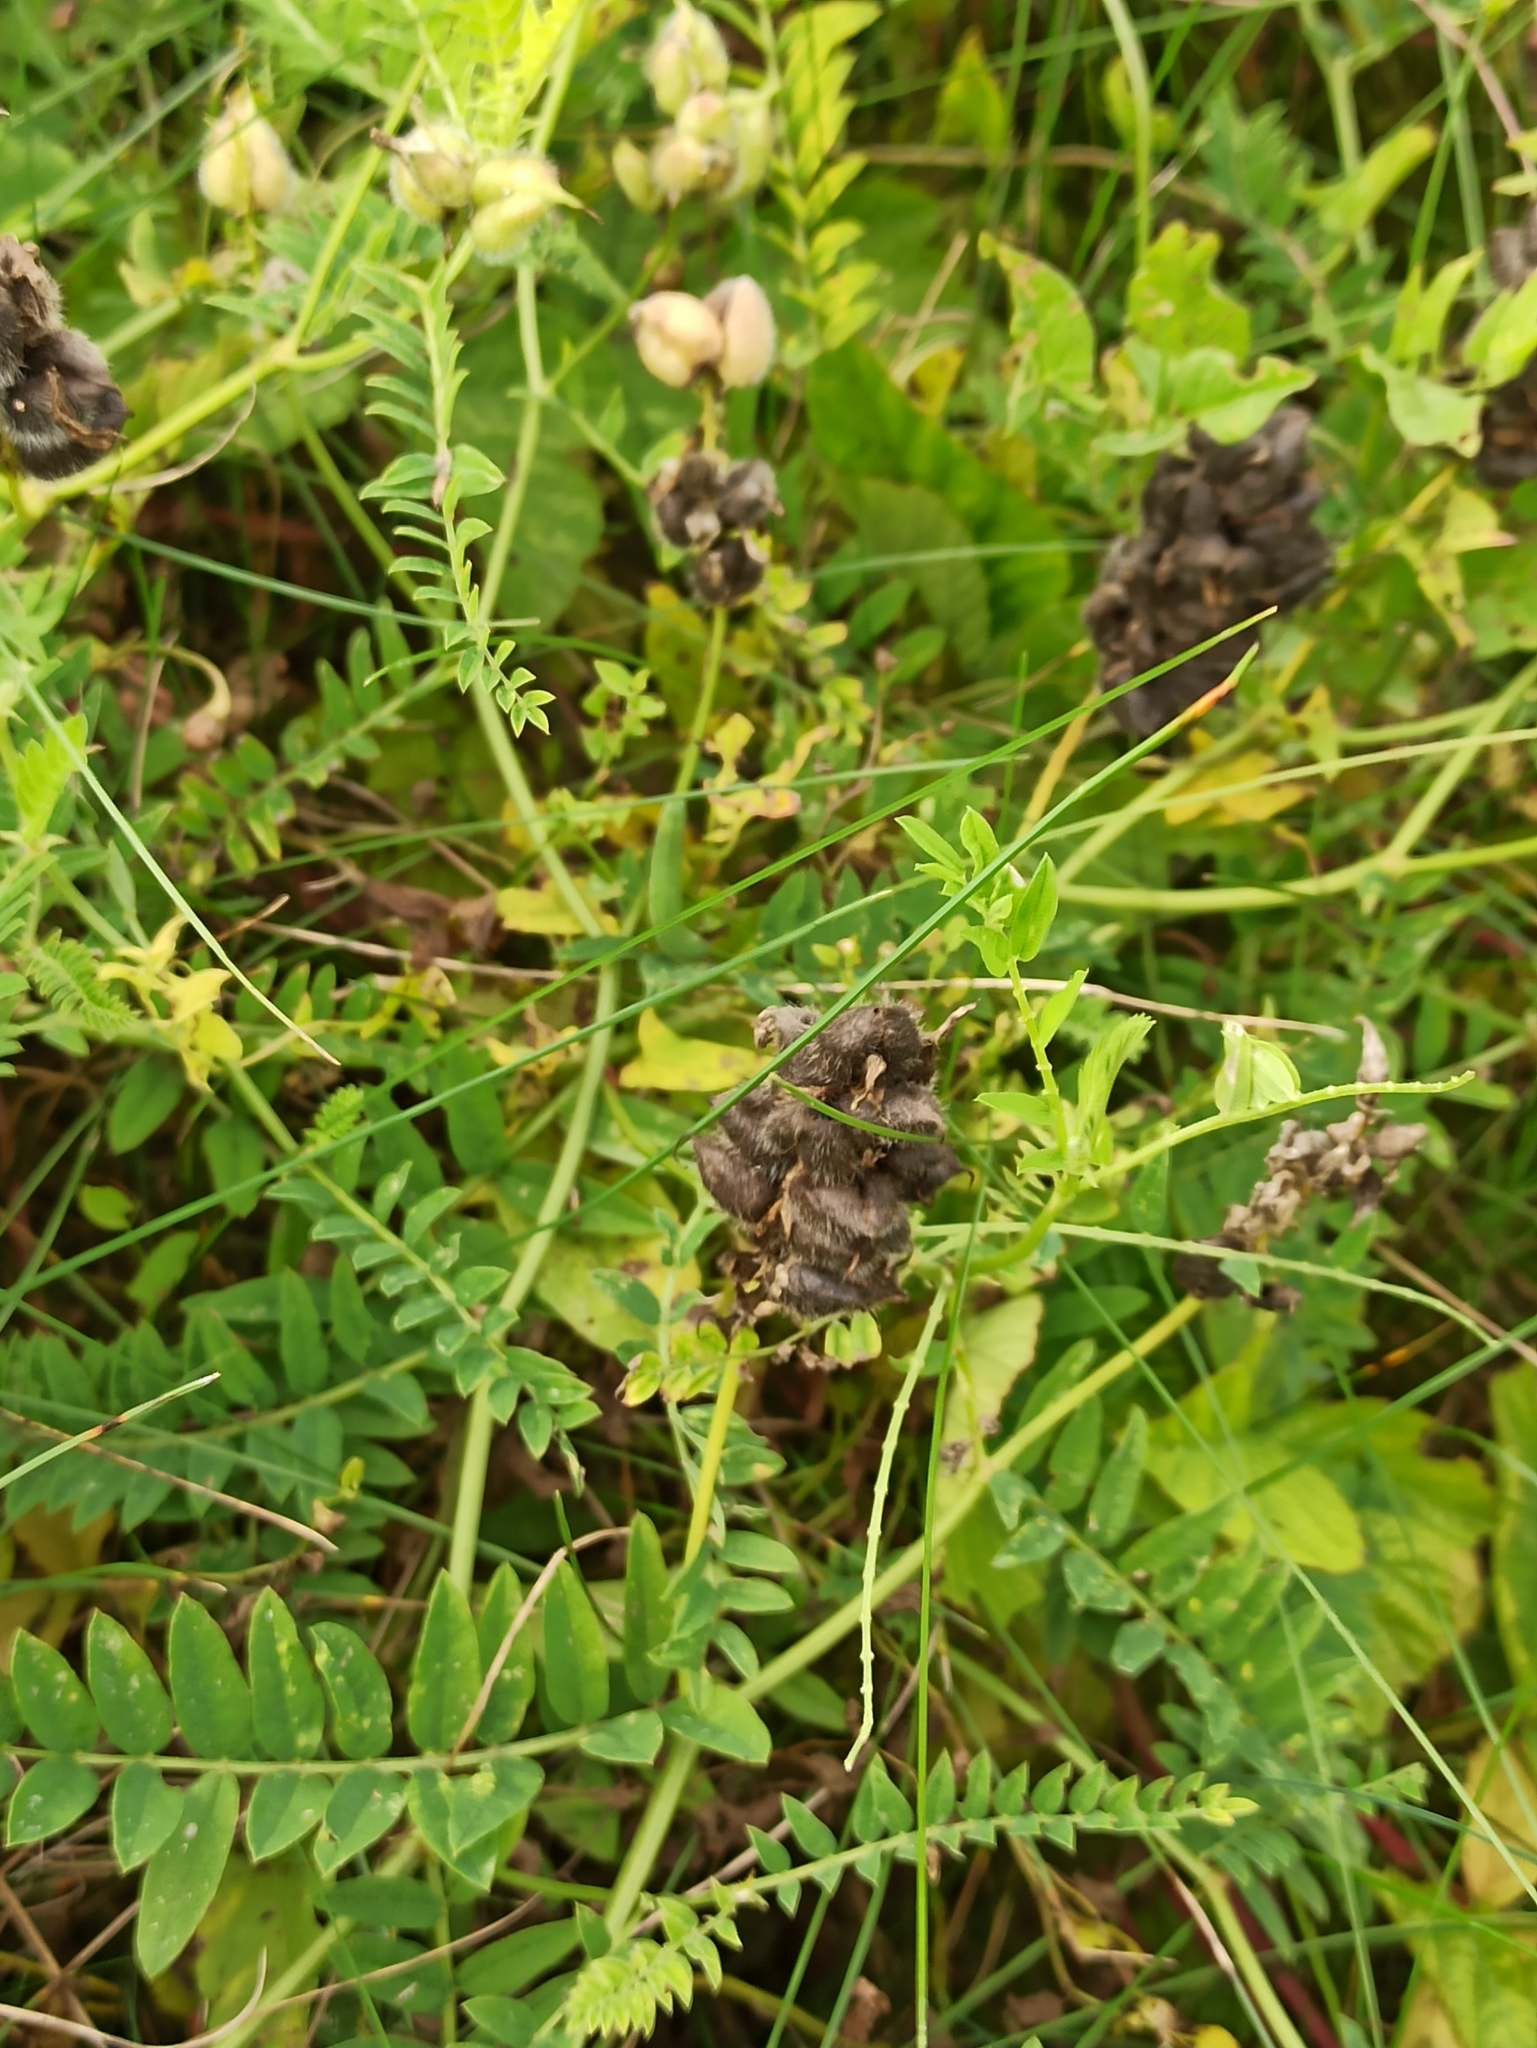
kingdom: Plantae
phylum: Tracheophyta
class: Magnoliopsida
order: Fabales
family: Fabaceae
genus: Astragalus
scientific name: Astragalus cicer
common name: Chick-pea milk-vetch
